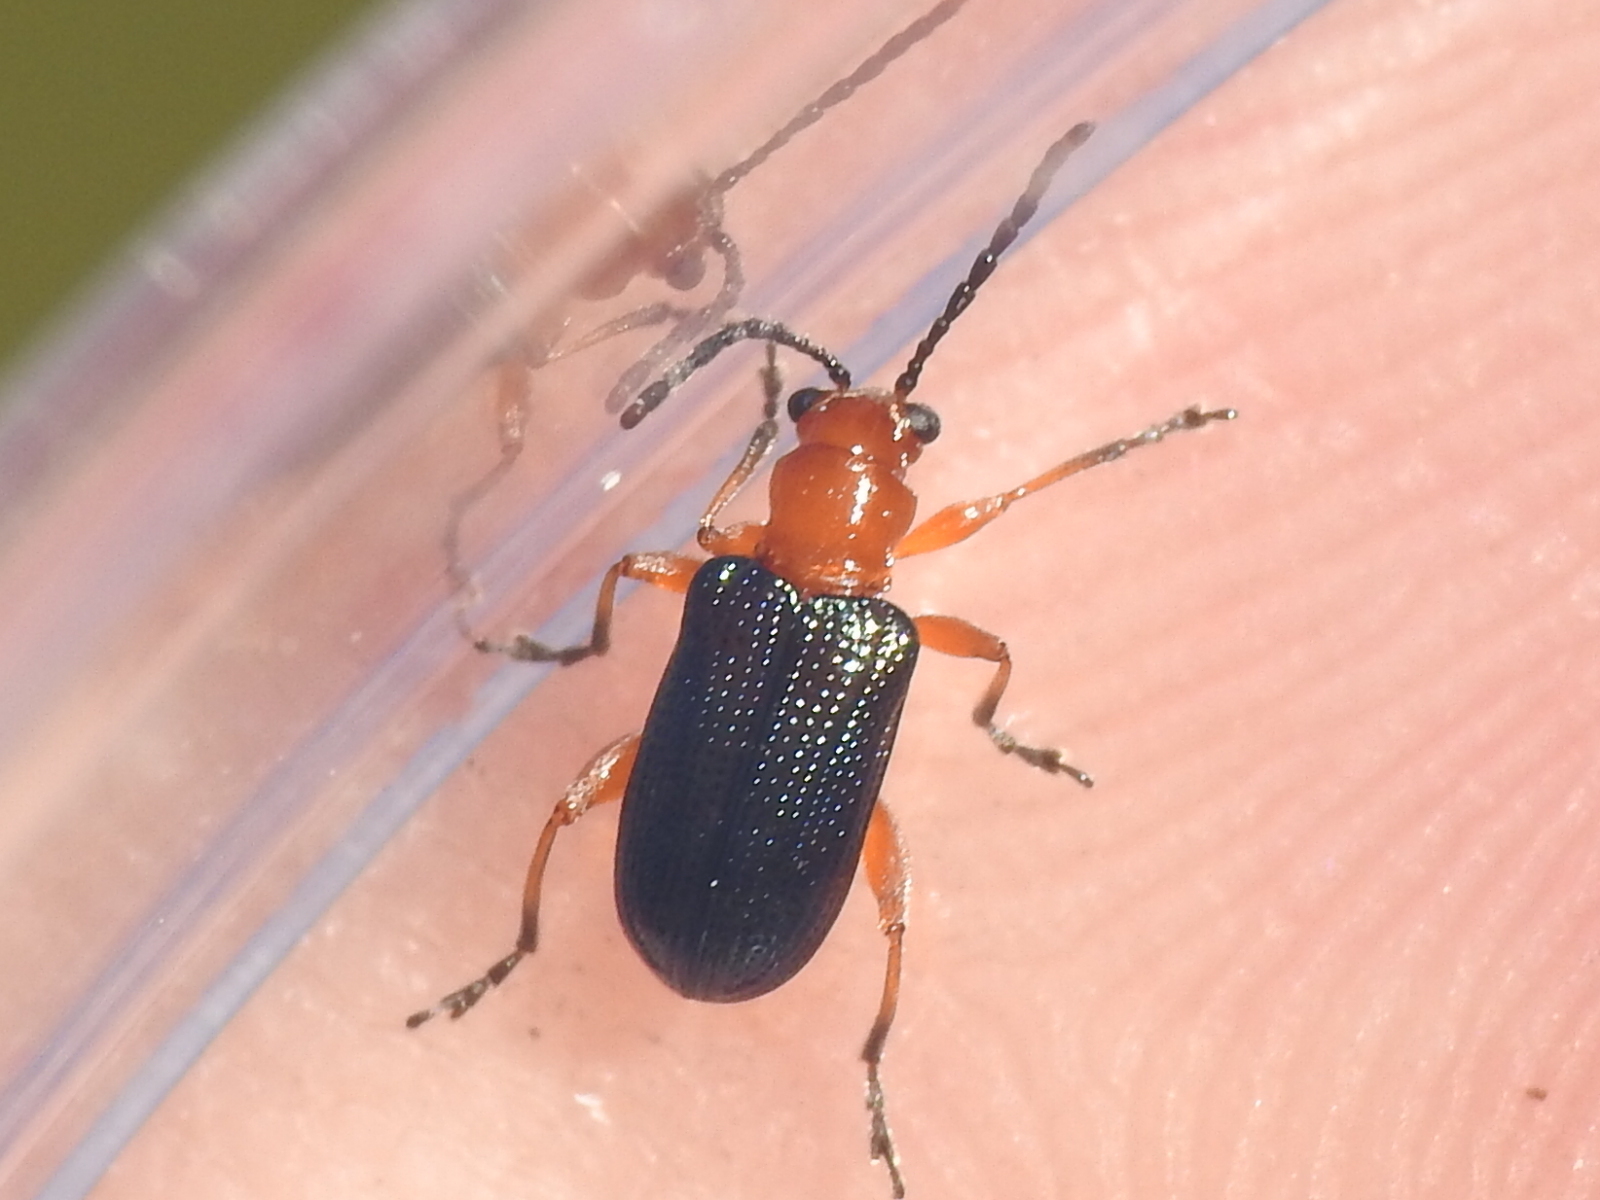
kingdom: Animalia
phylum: Arthropoda
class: Insecta
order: Coleoptera
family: Chrysomelidae
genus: Oulema
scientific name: Oulema variabilis
